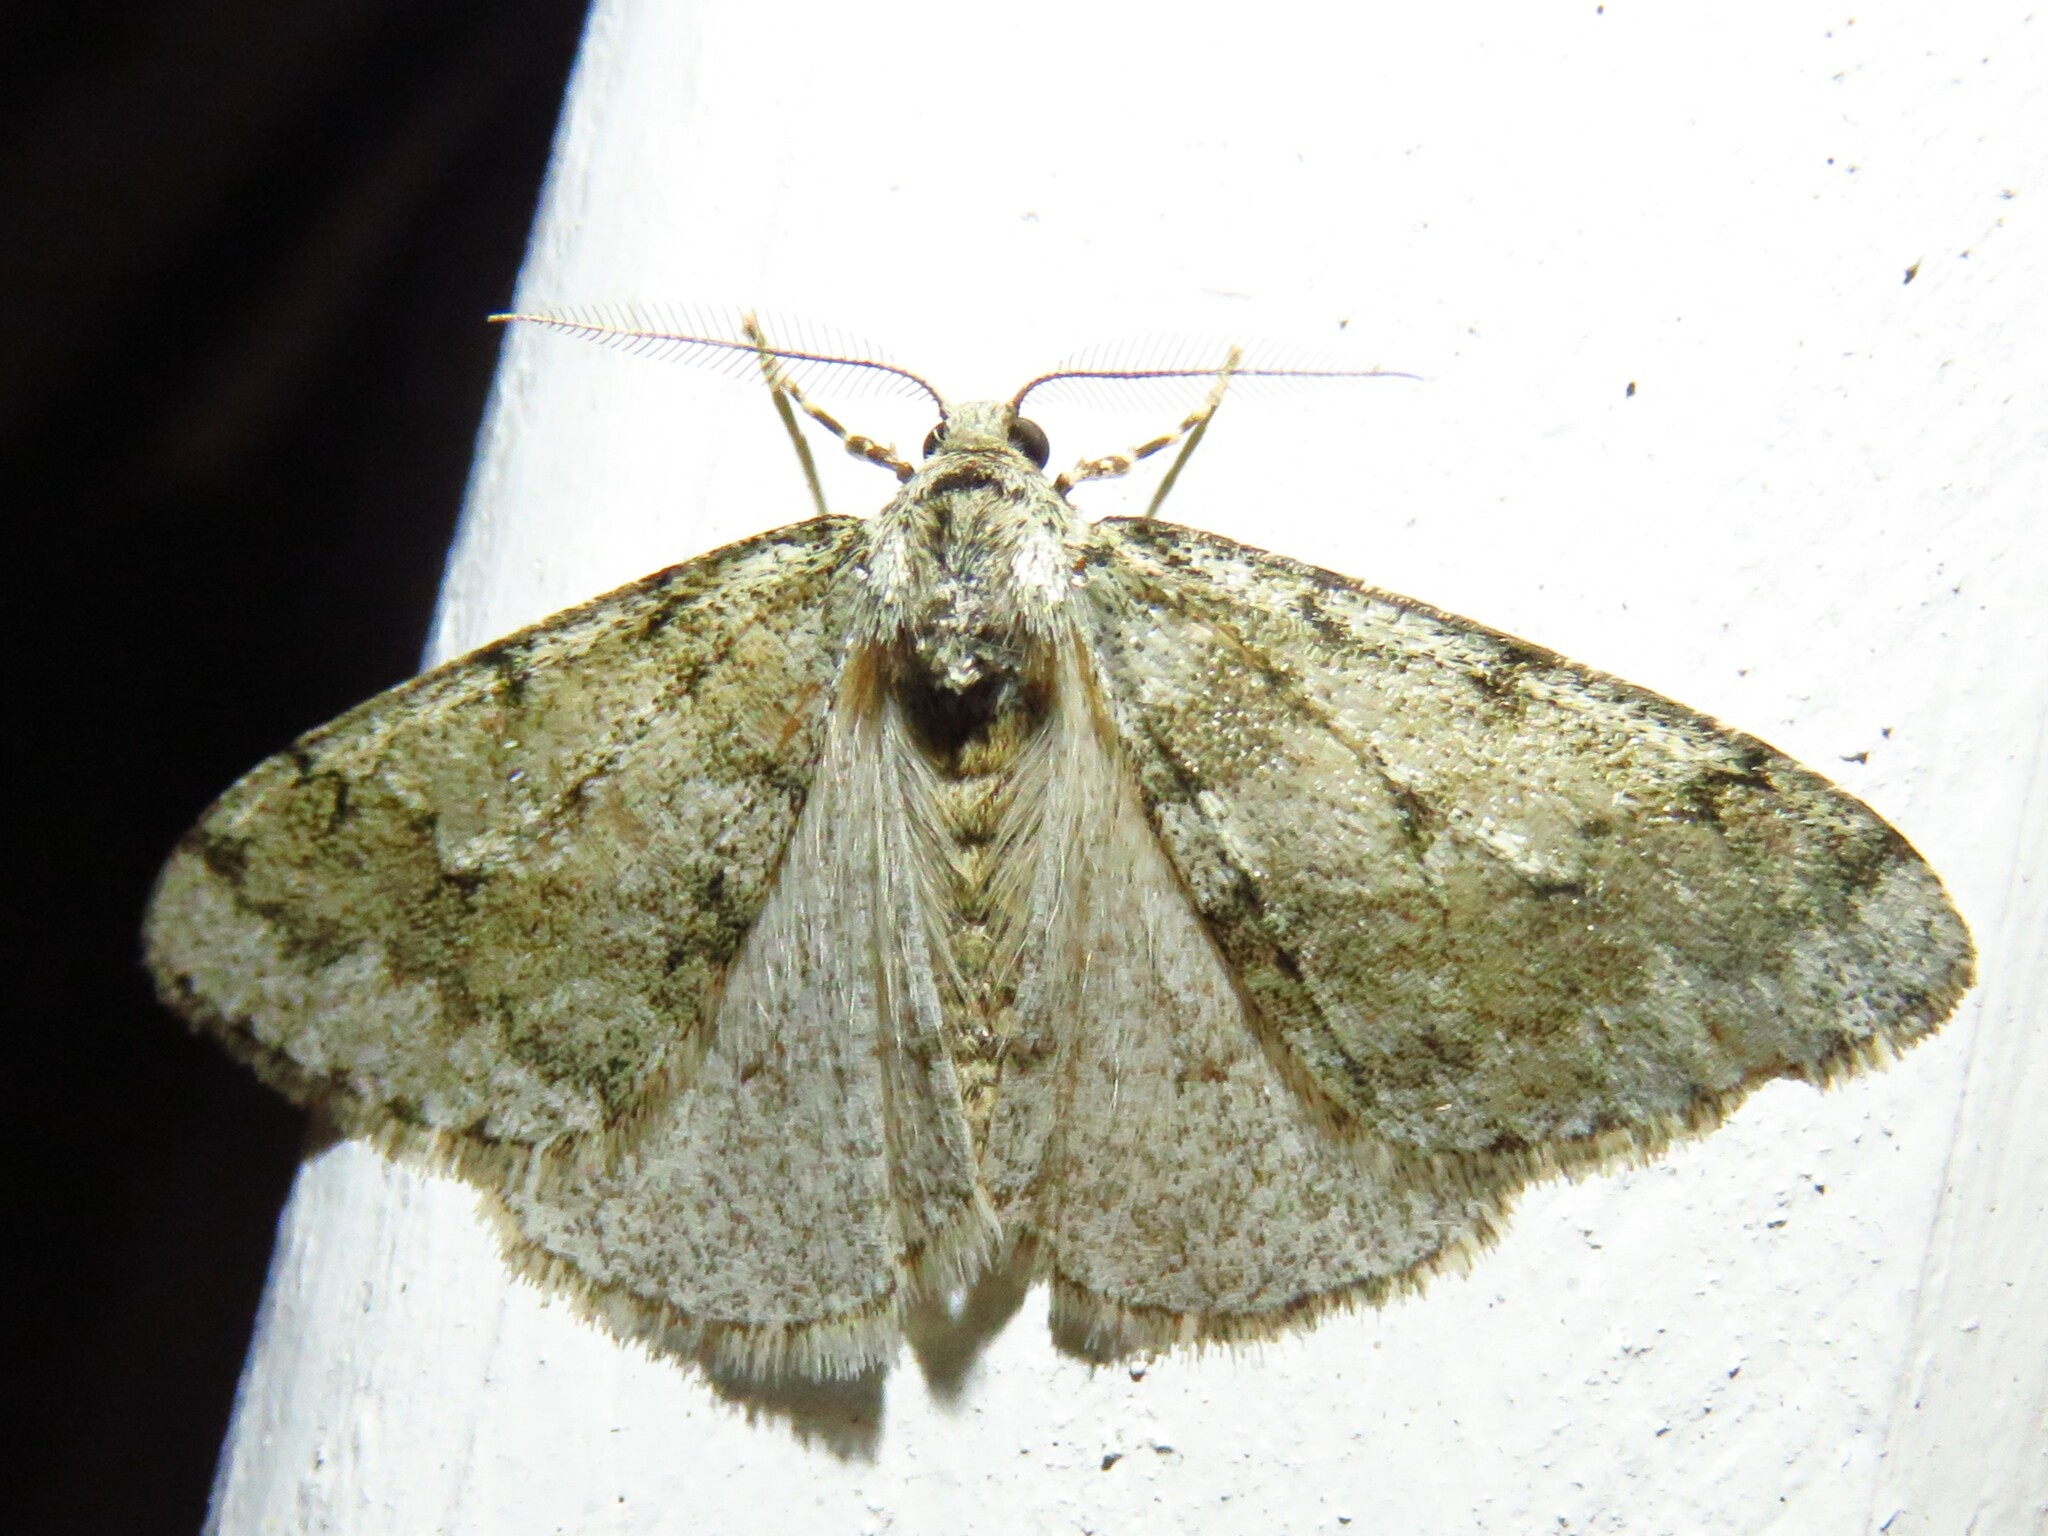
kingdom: Animalia
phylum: Arthropoda
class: Insecta
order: Lepidoptera
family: Geometridae
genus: Phigalia
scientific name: Phigalia strigataria
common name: Small phigalia
